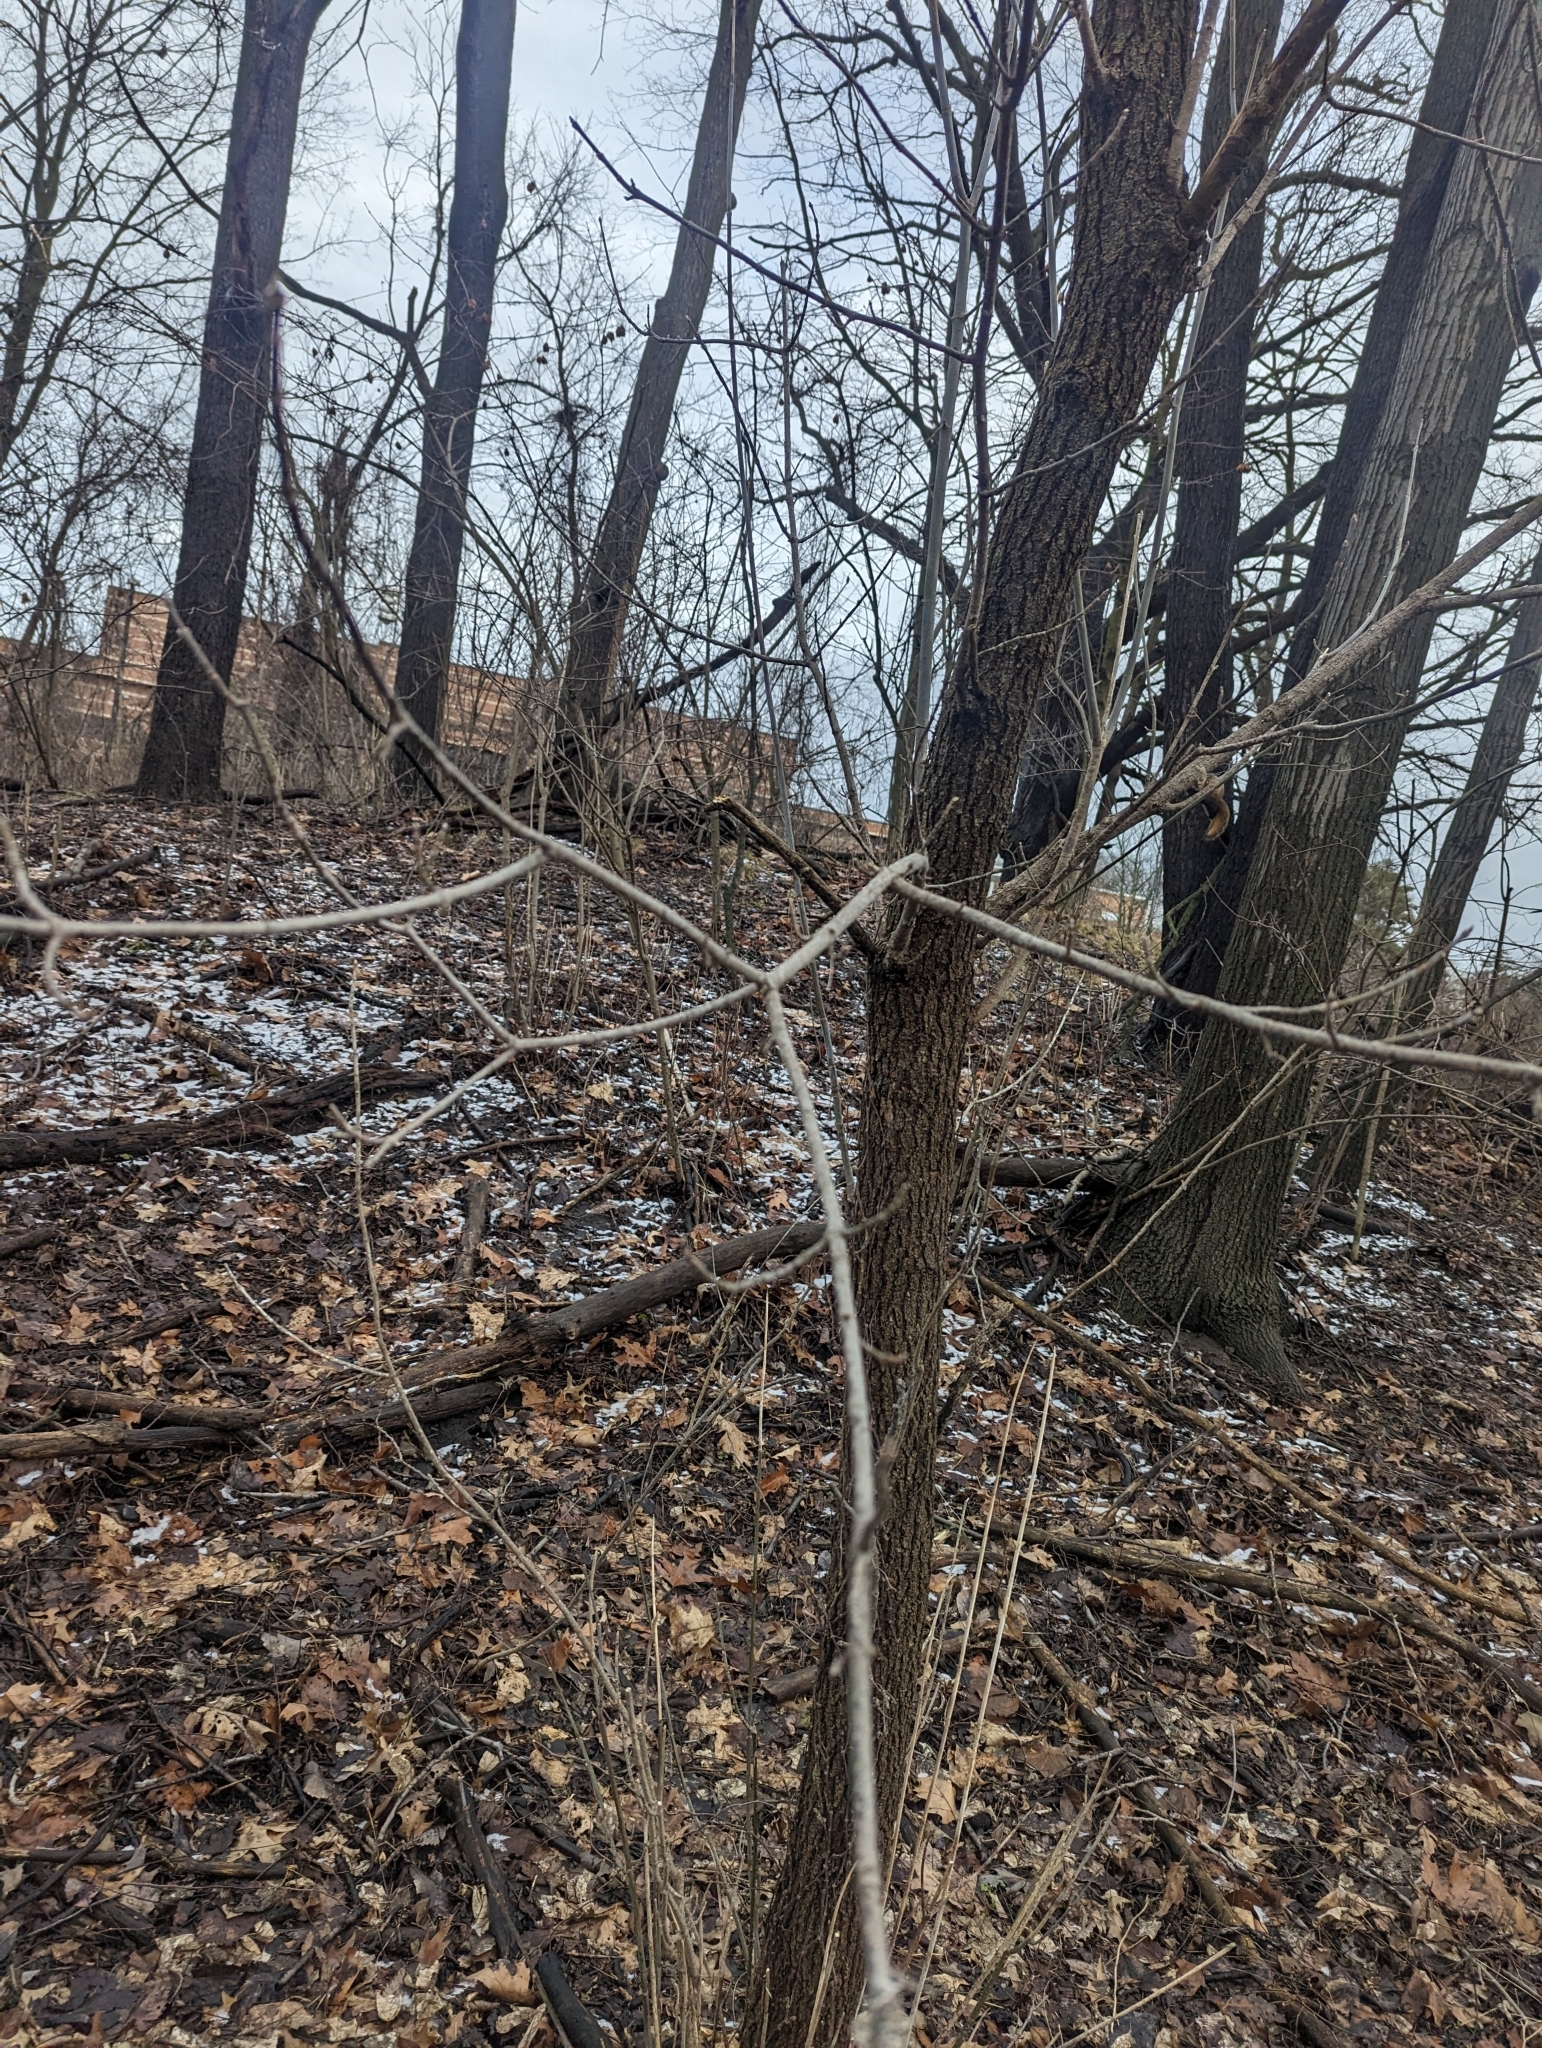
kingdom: Plantae
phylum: Tracheophyta
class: Magnoliopsida
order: Sapindales
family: Sapindaceae
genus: Acer
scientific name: Acer negundo
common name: Ashleaf maple
